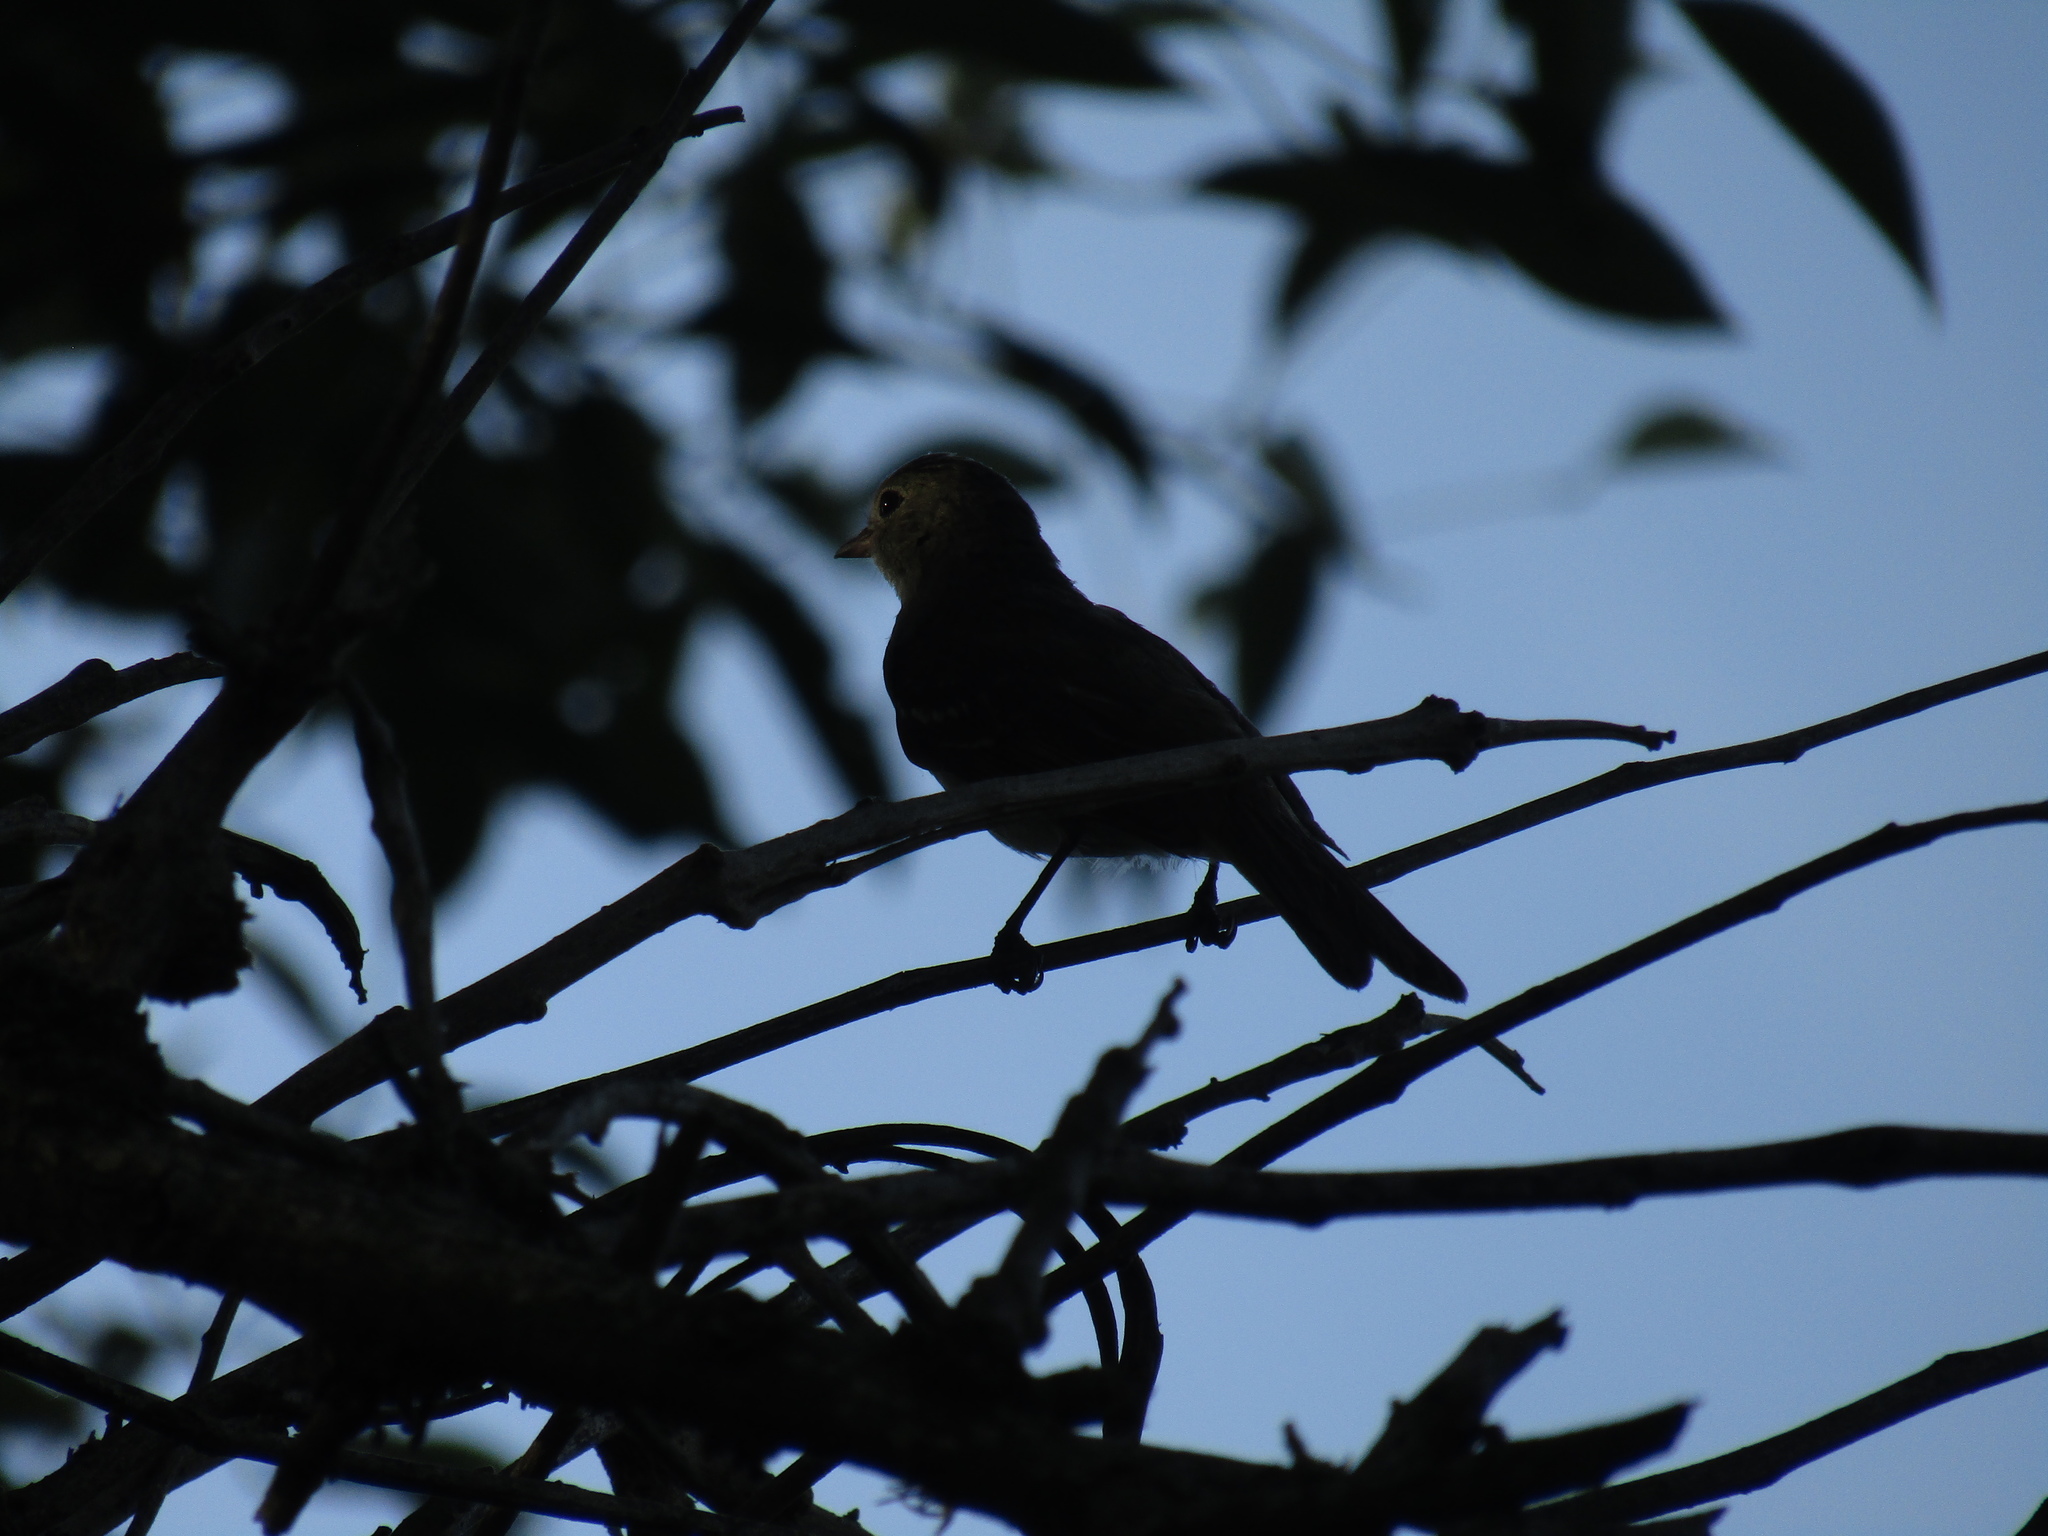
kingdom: Animalia
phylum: Chordata
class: Aves
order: Passeriformes
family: Tyrannidae
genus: Elaenia
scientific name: Elaenia parvirostris
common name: Small-billed elaenia
